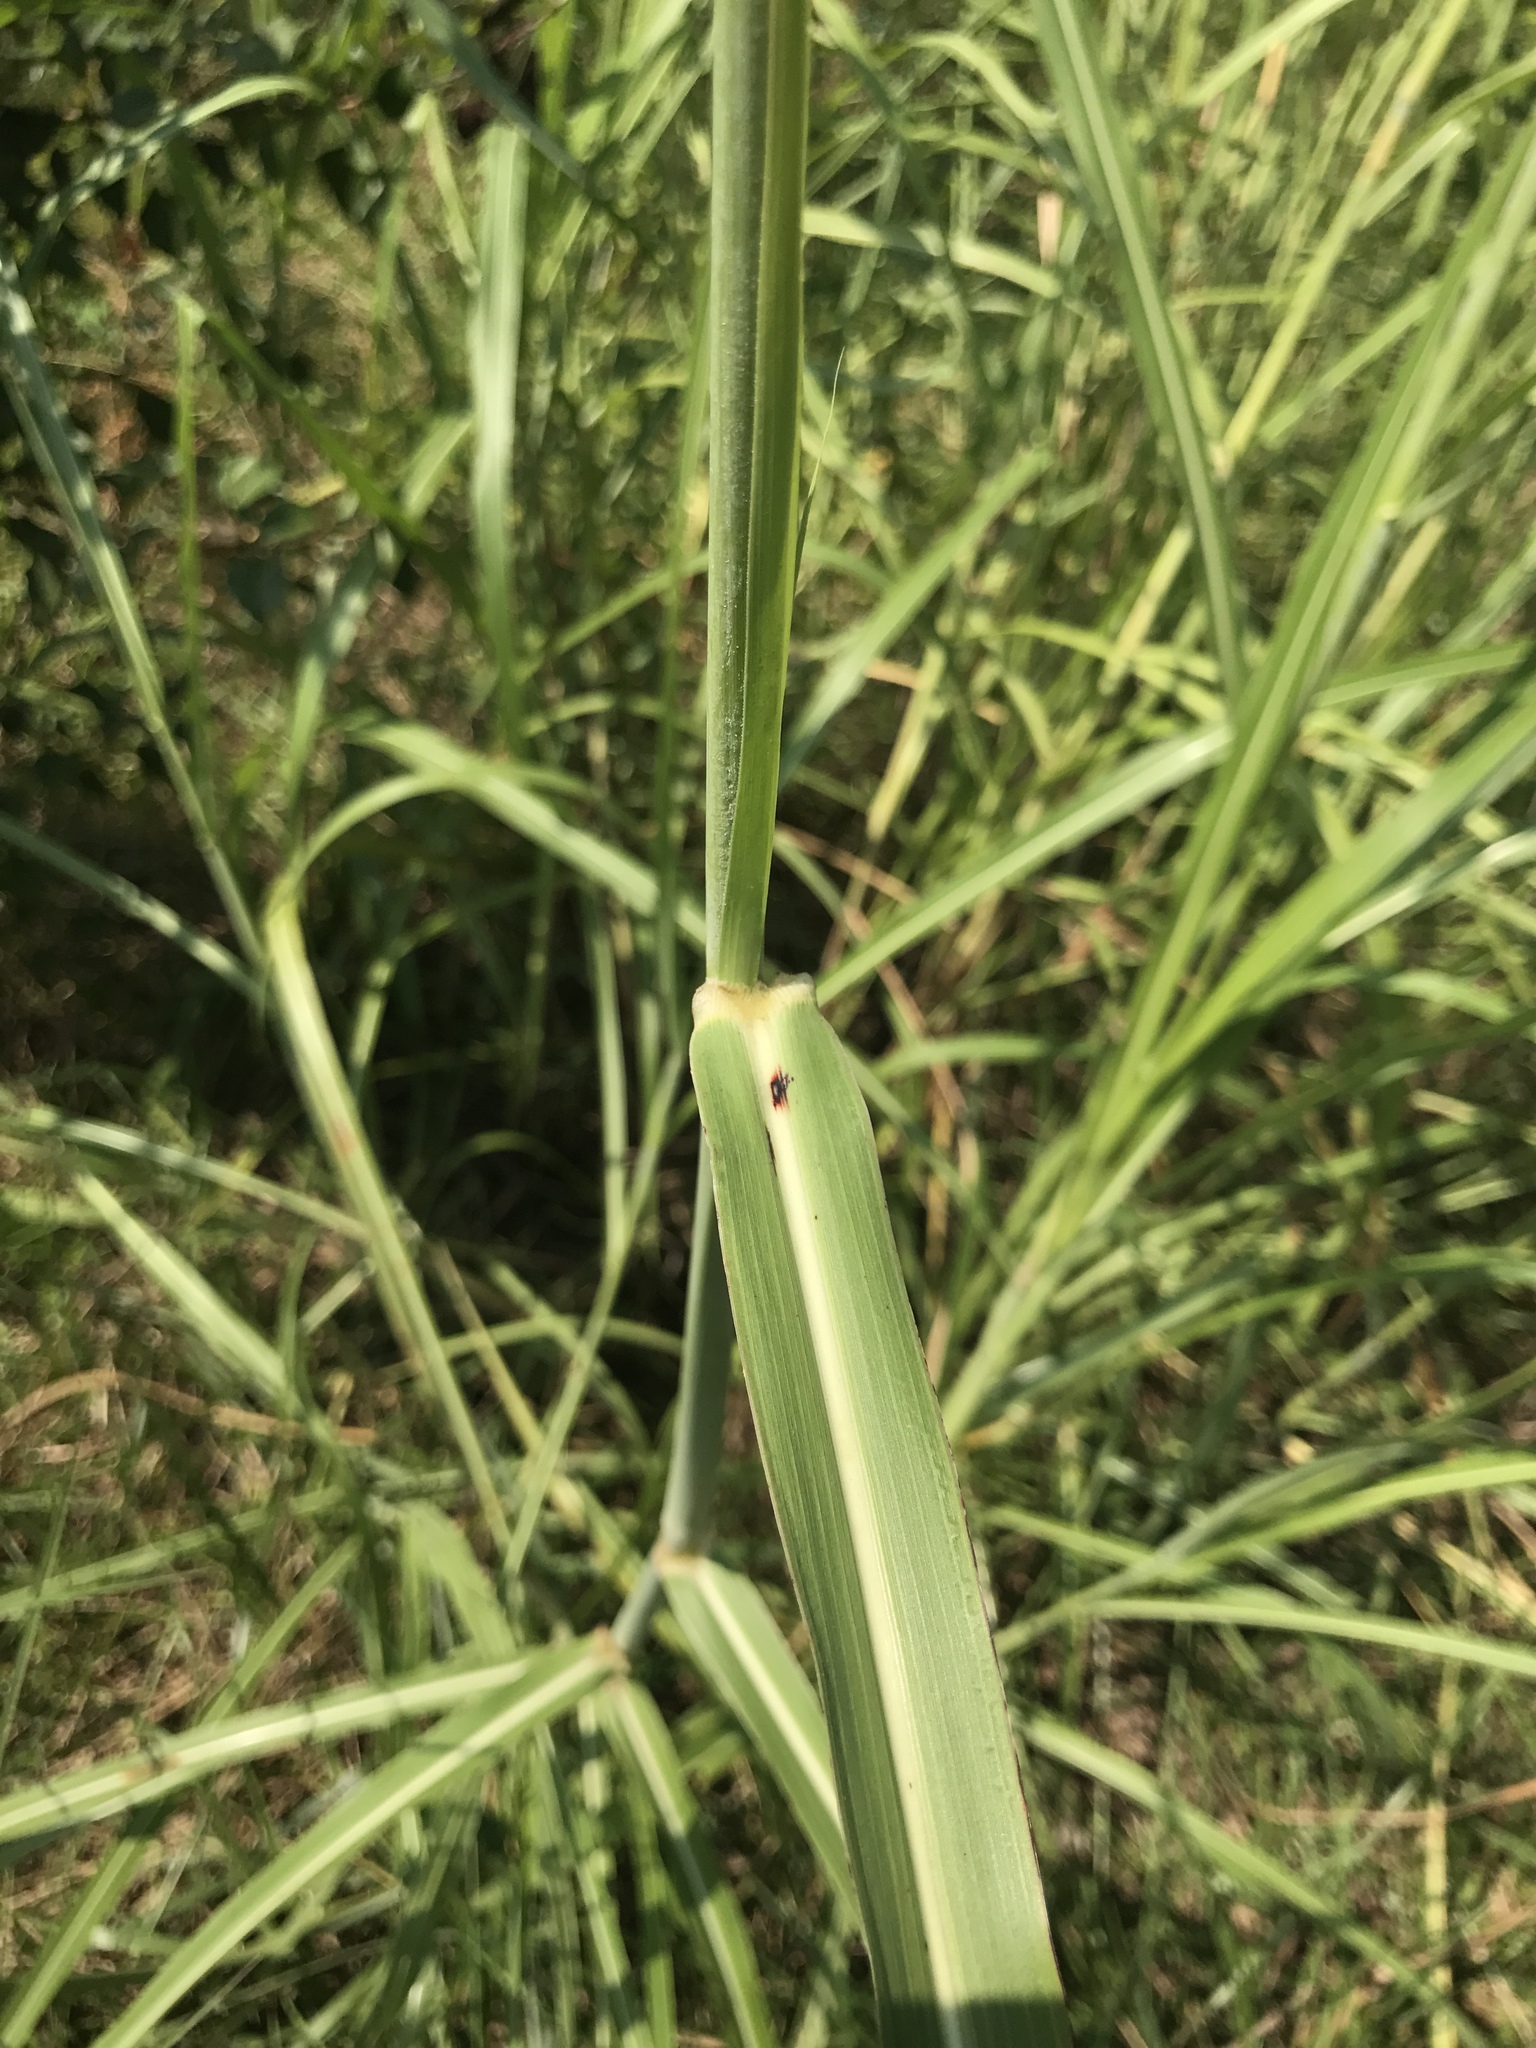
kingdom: Plantae
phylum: Tracheophyta
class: Liliopsida
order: Poales
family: Poaceae
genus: Sorghum
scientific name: Sorghum halepense
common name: Johnson-grass
